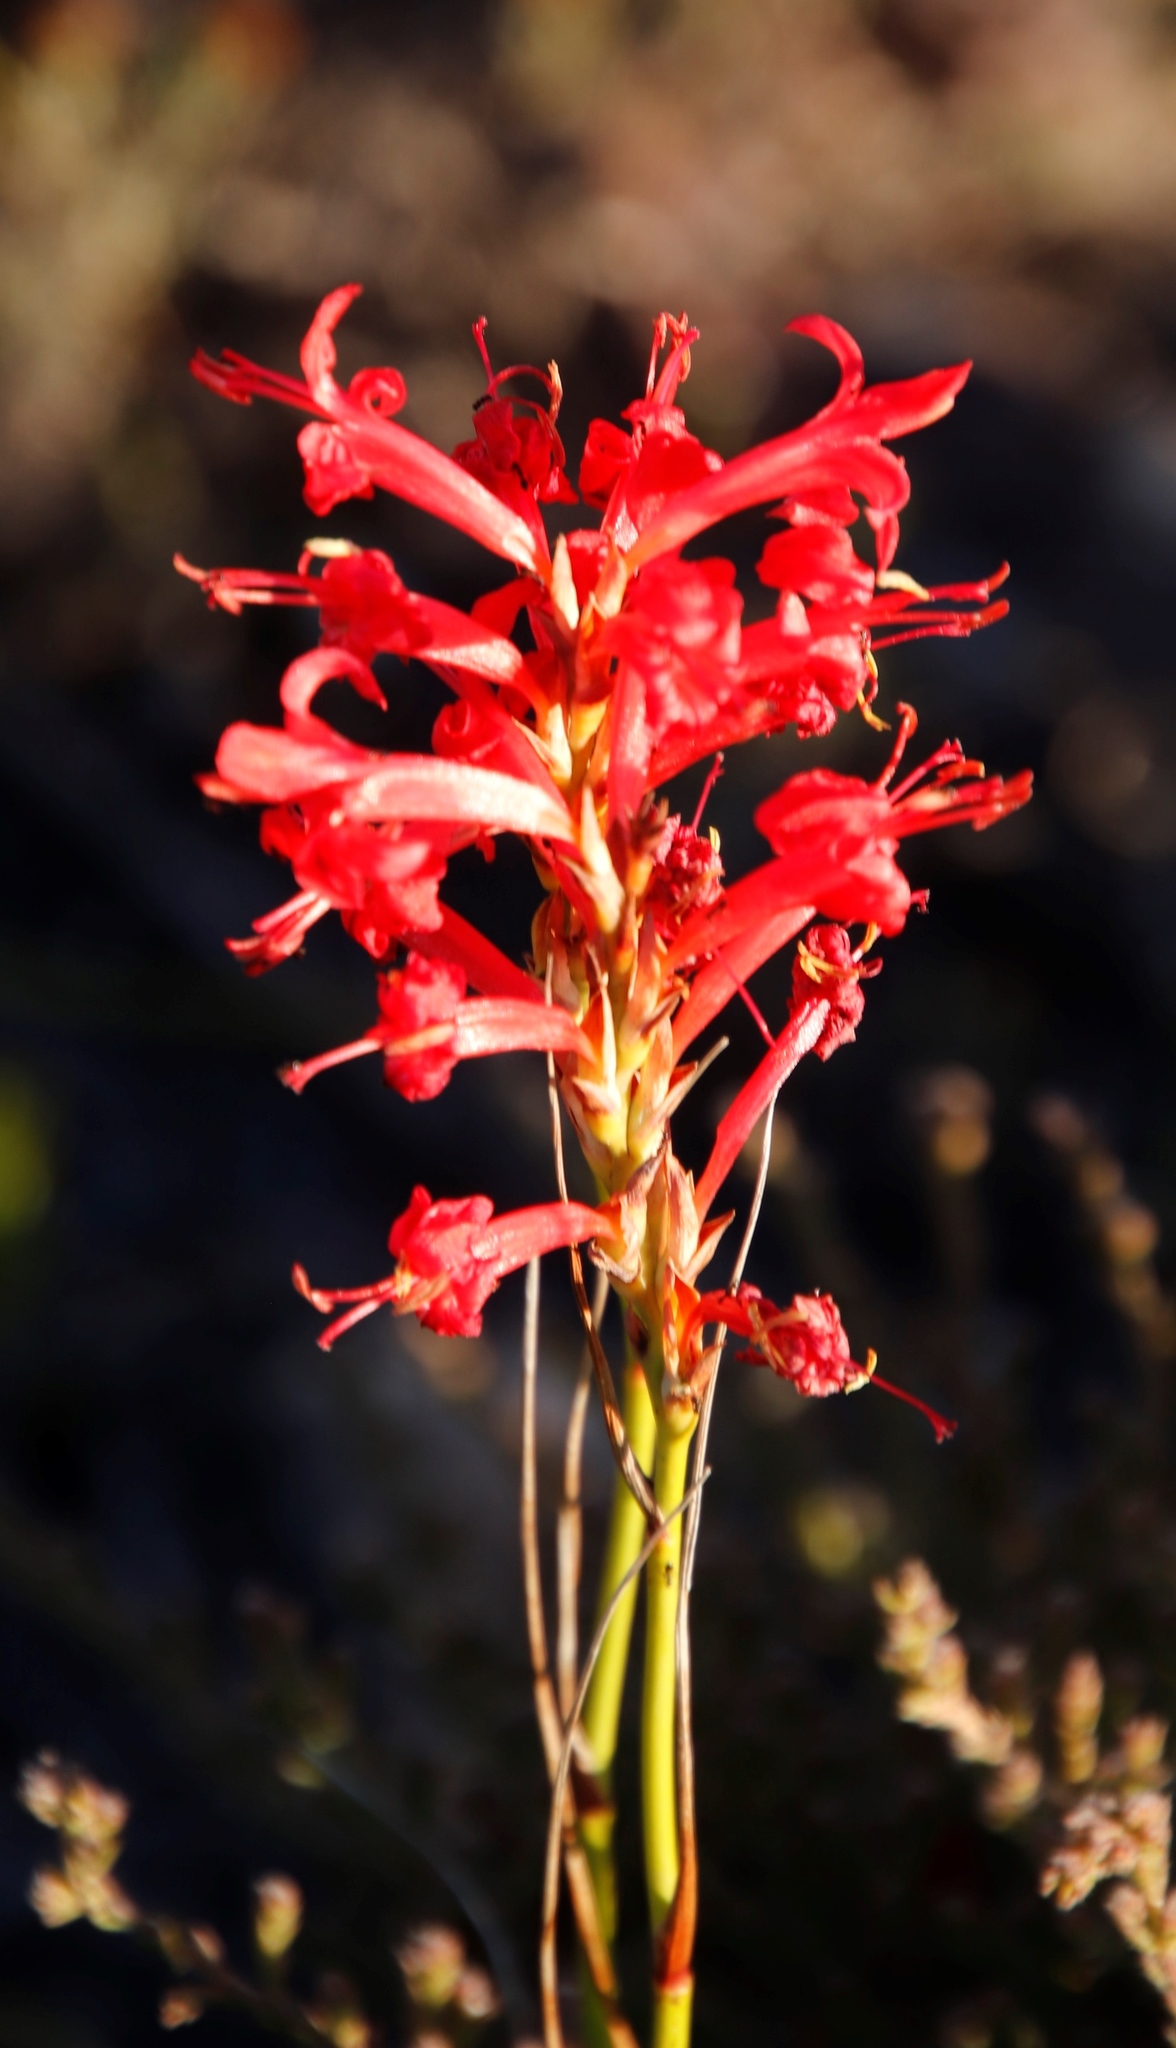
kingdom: Plantae
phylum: Tracheophyta
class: Liliopsida
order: Asparagales
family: Iridaceae
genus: Tritoniopsis
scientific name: Tritoniopsis triticea
